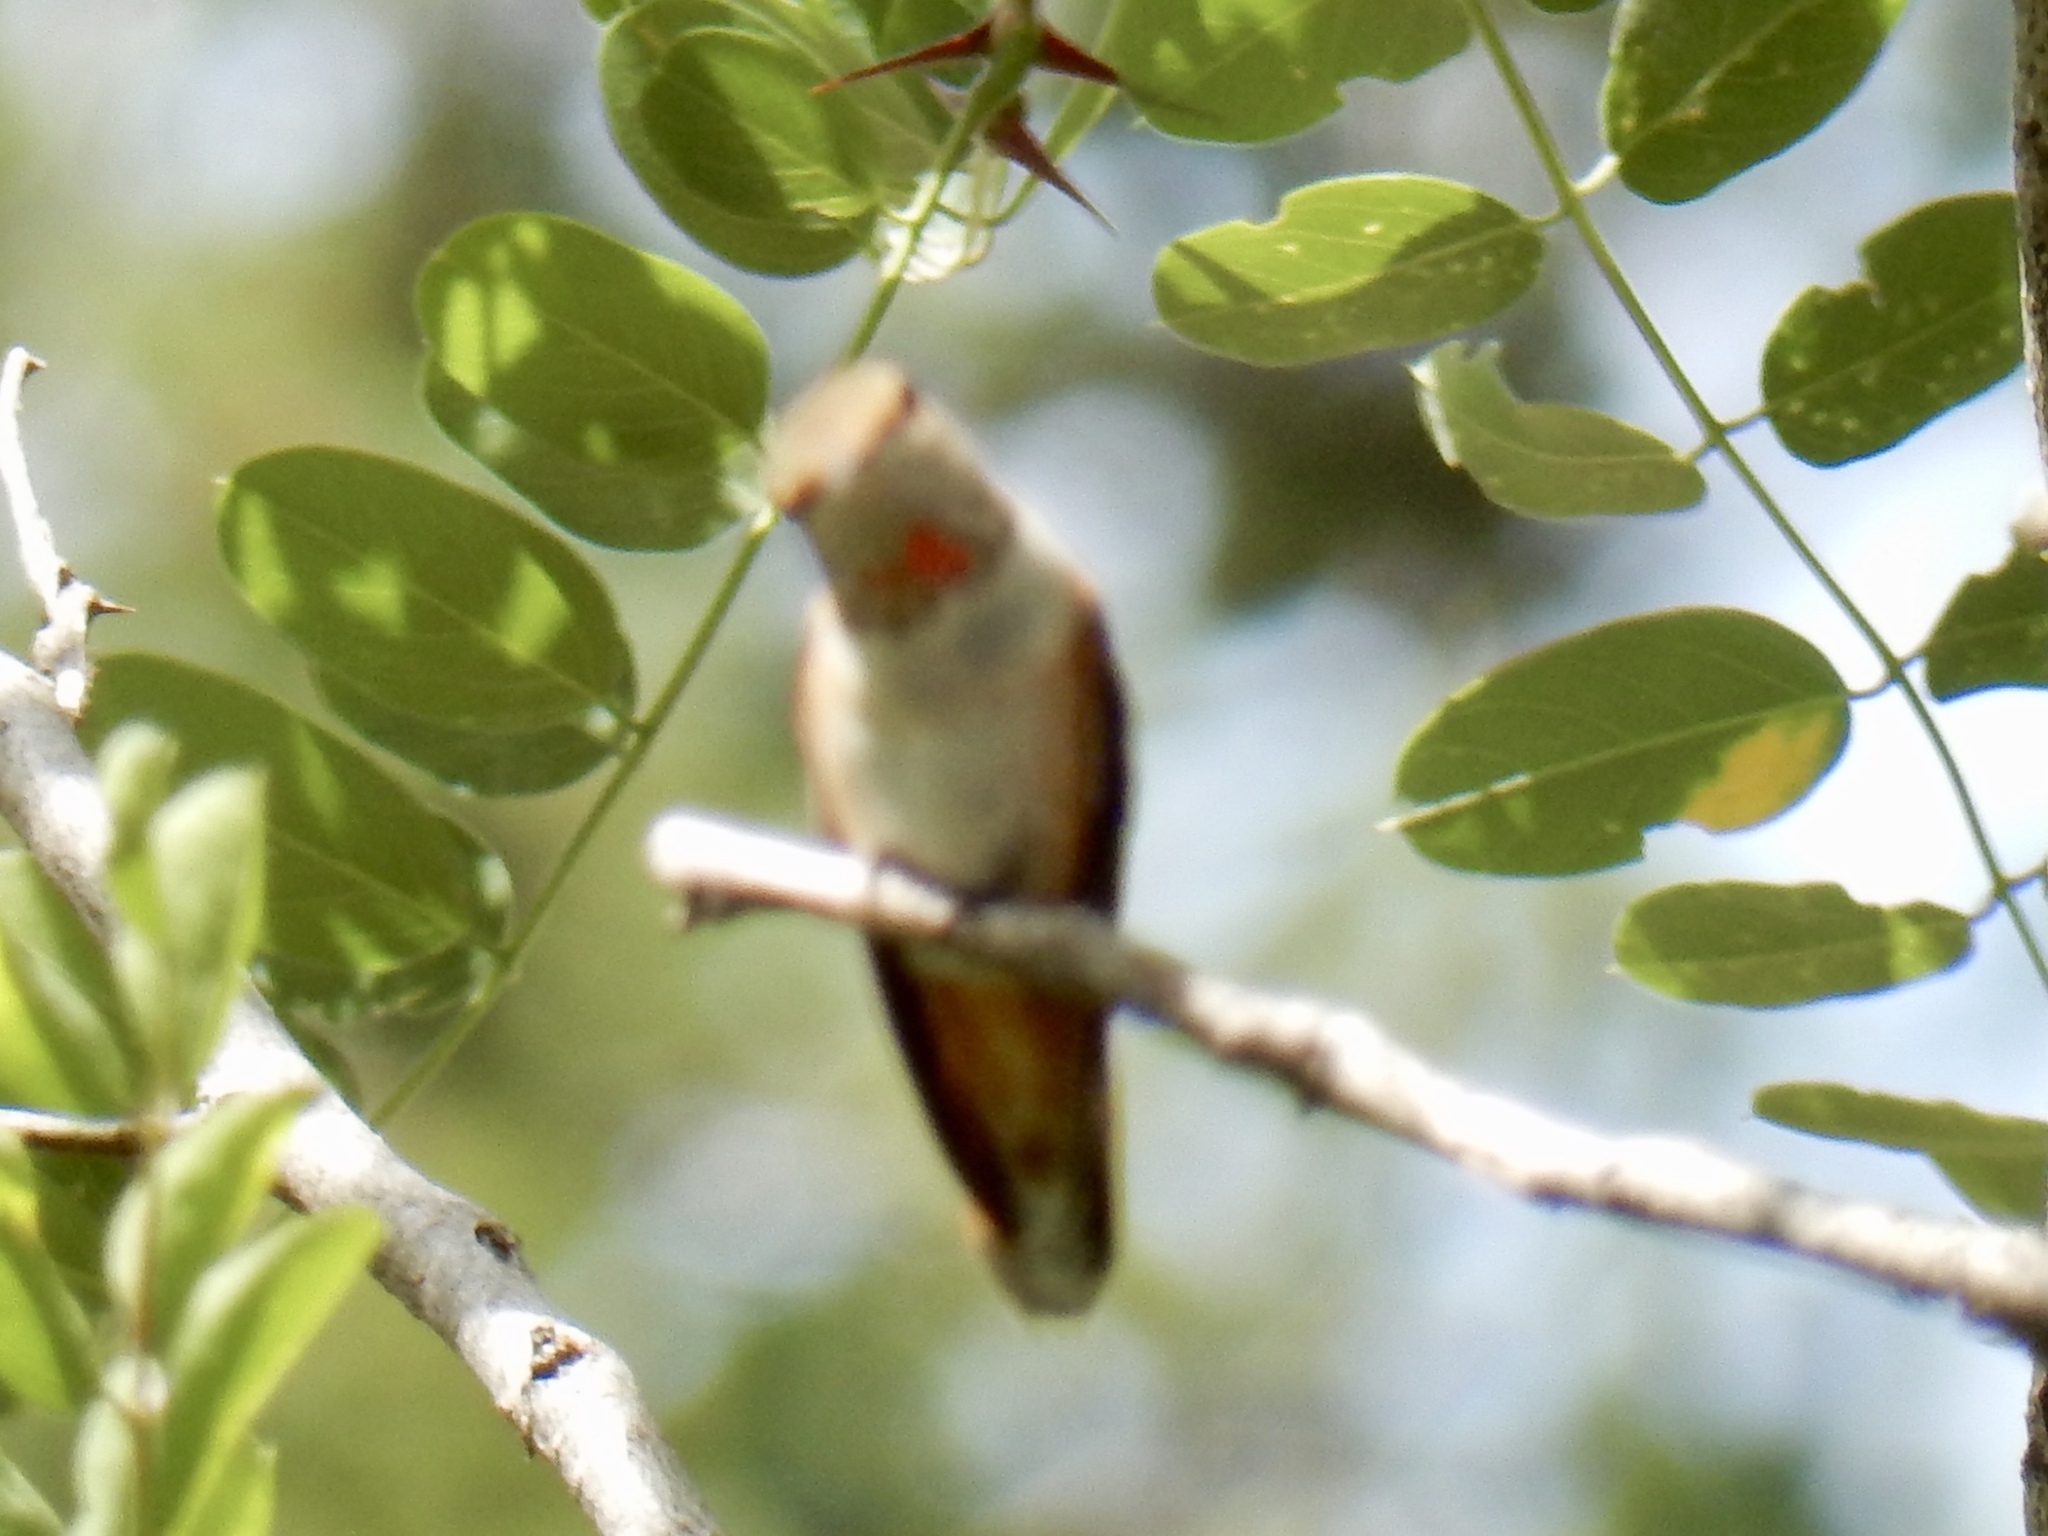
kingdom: Animalia
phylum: Chordata
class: Aves
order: Apodiformes
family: Trochilidae
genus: Selasphorus
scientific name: Selasphorus rufus
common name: Rufous hummingbird
